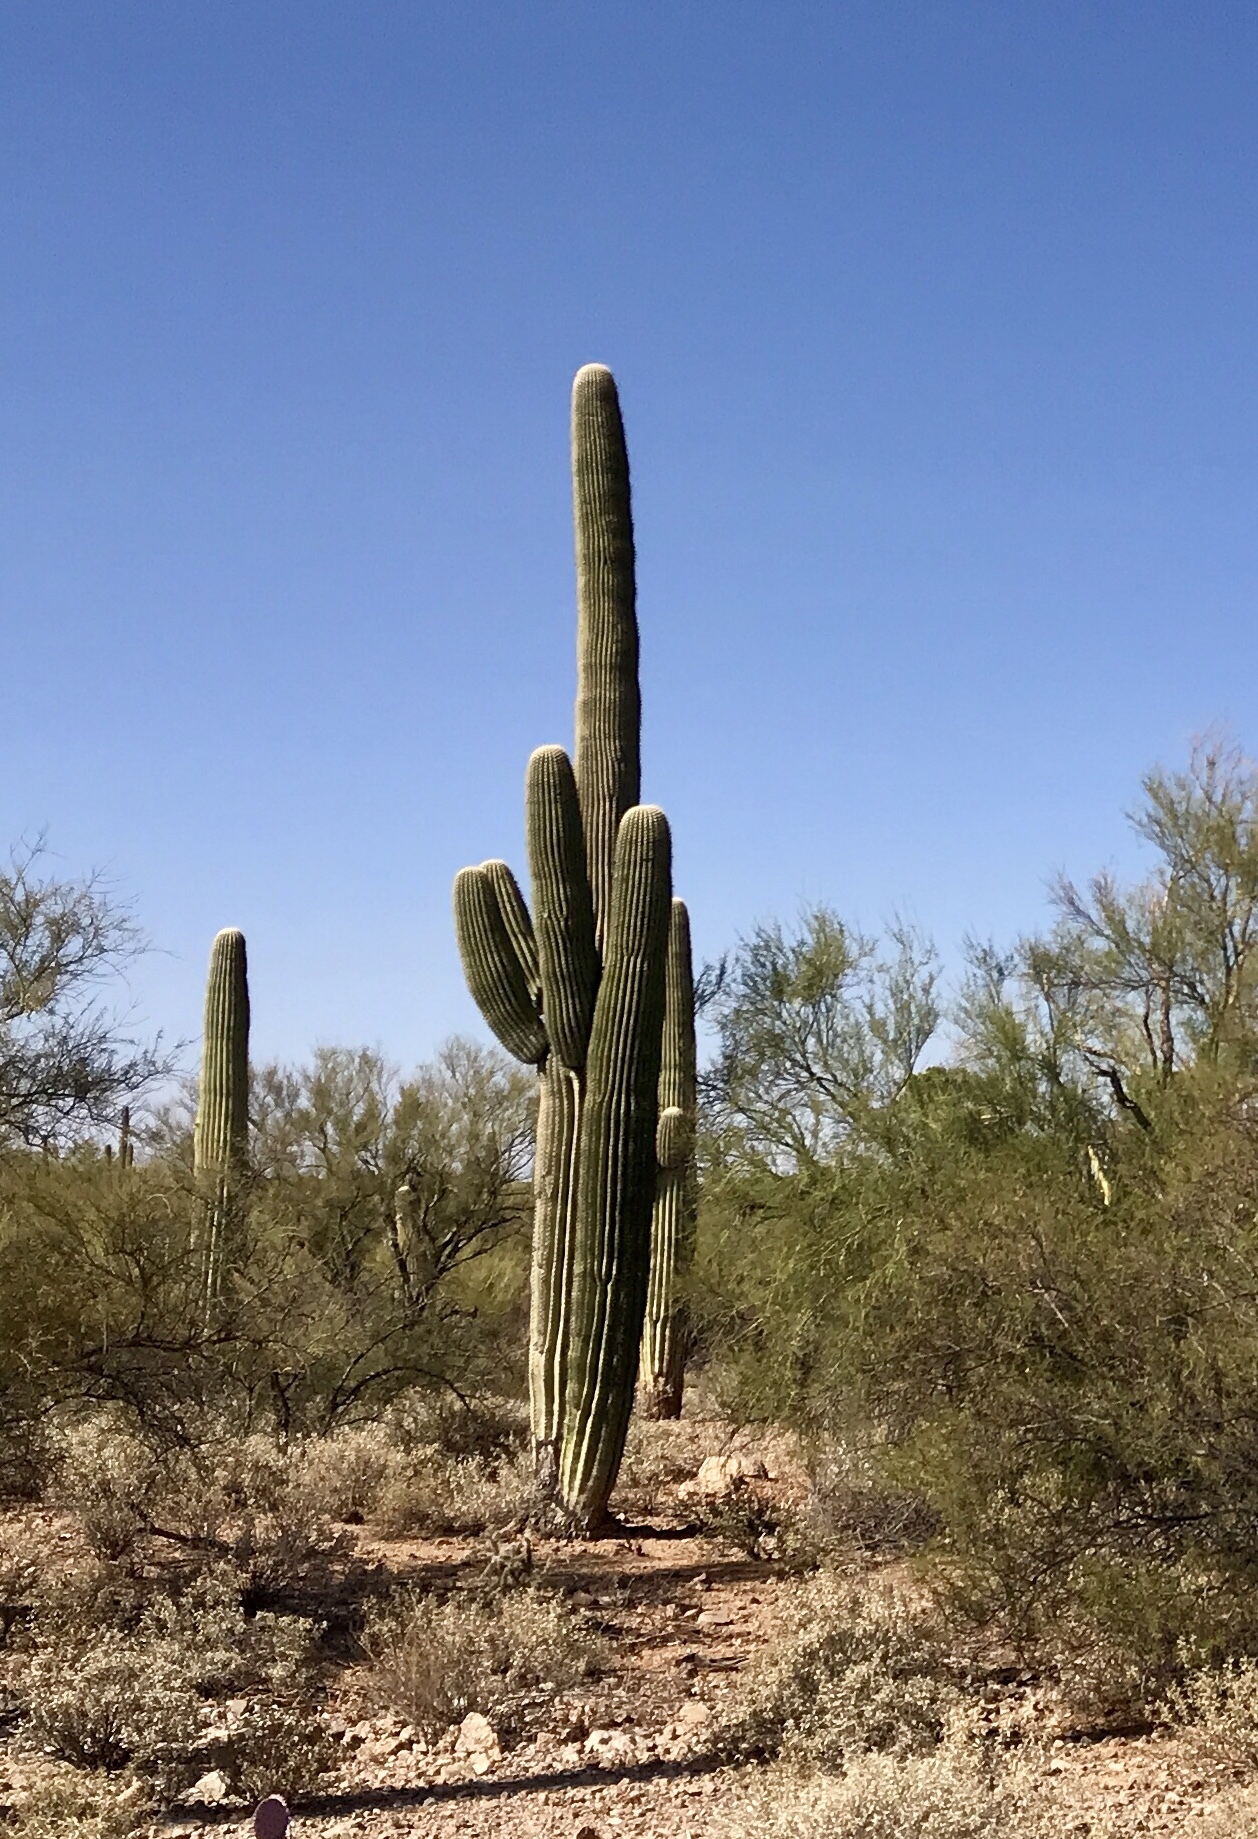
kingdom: Plantae
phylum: Tracheophyta
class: Magnoliopsida
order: Caryophyllales
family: Cactaceae
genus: Carnegiea
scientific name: Carnegiea gigantea
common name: Saguaro
